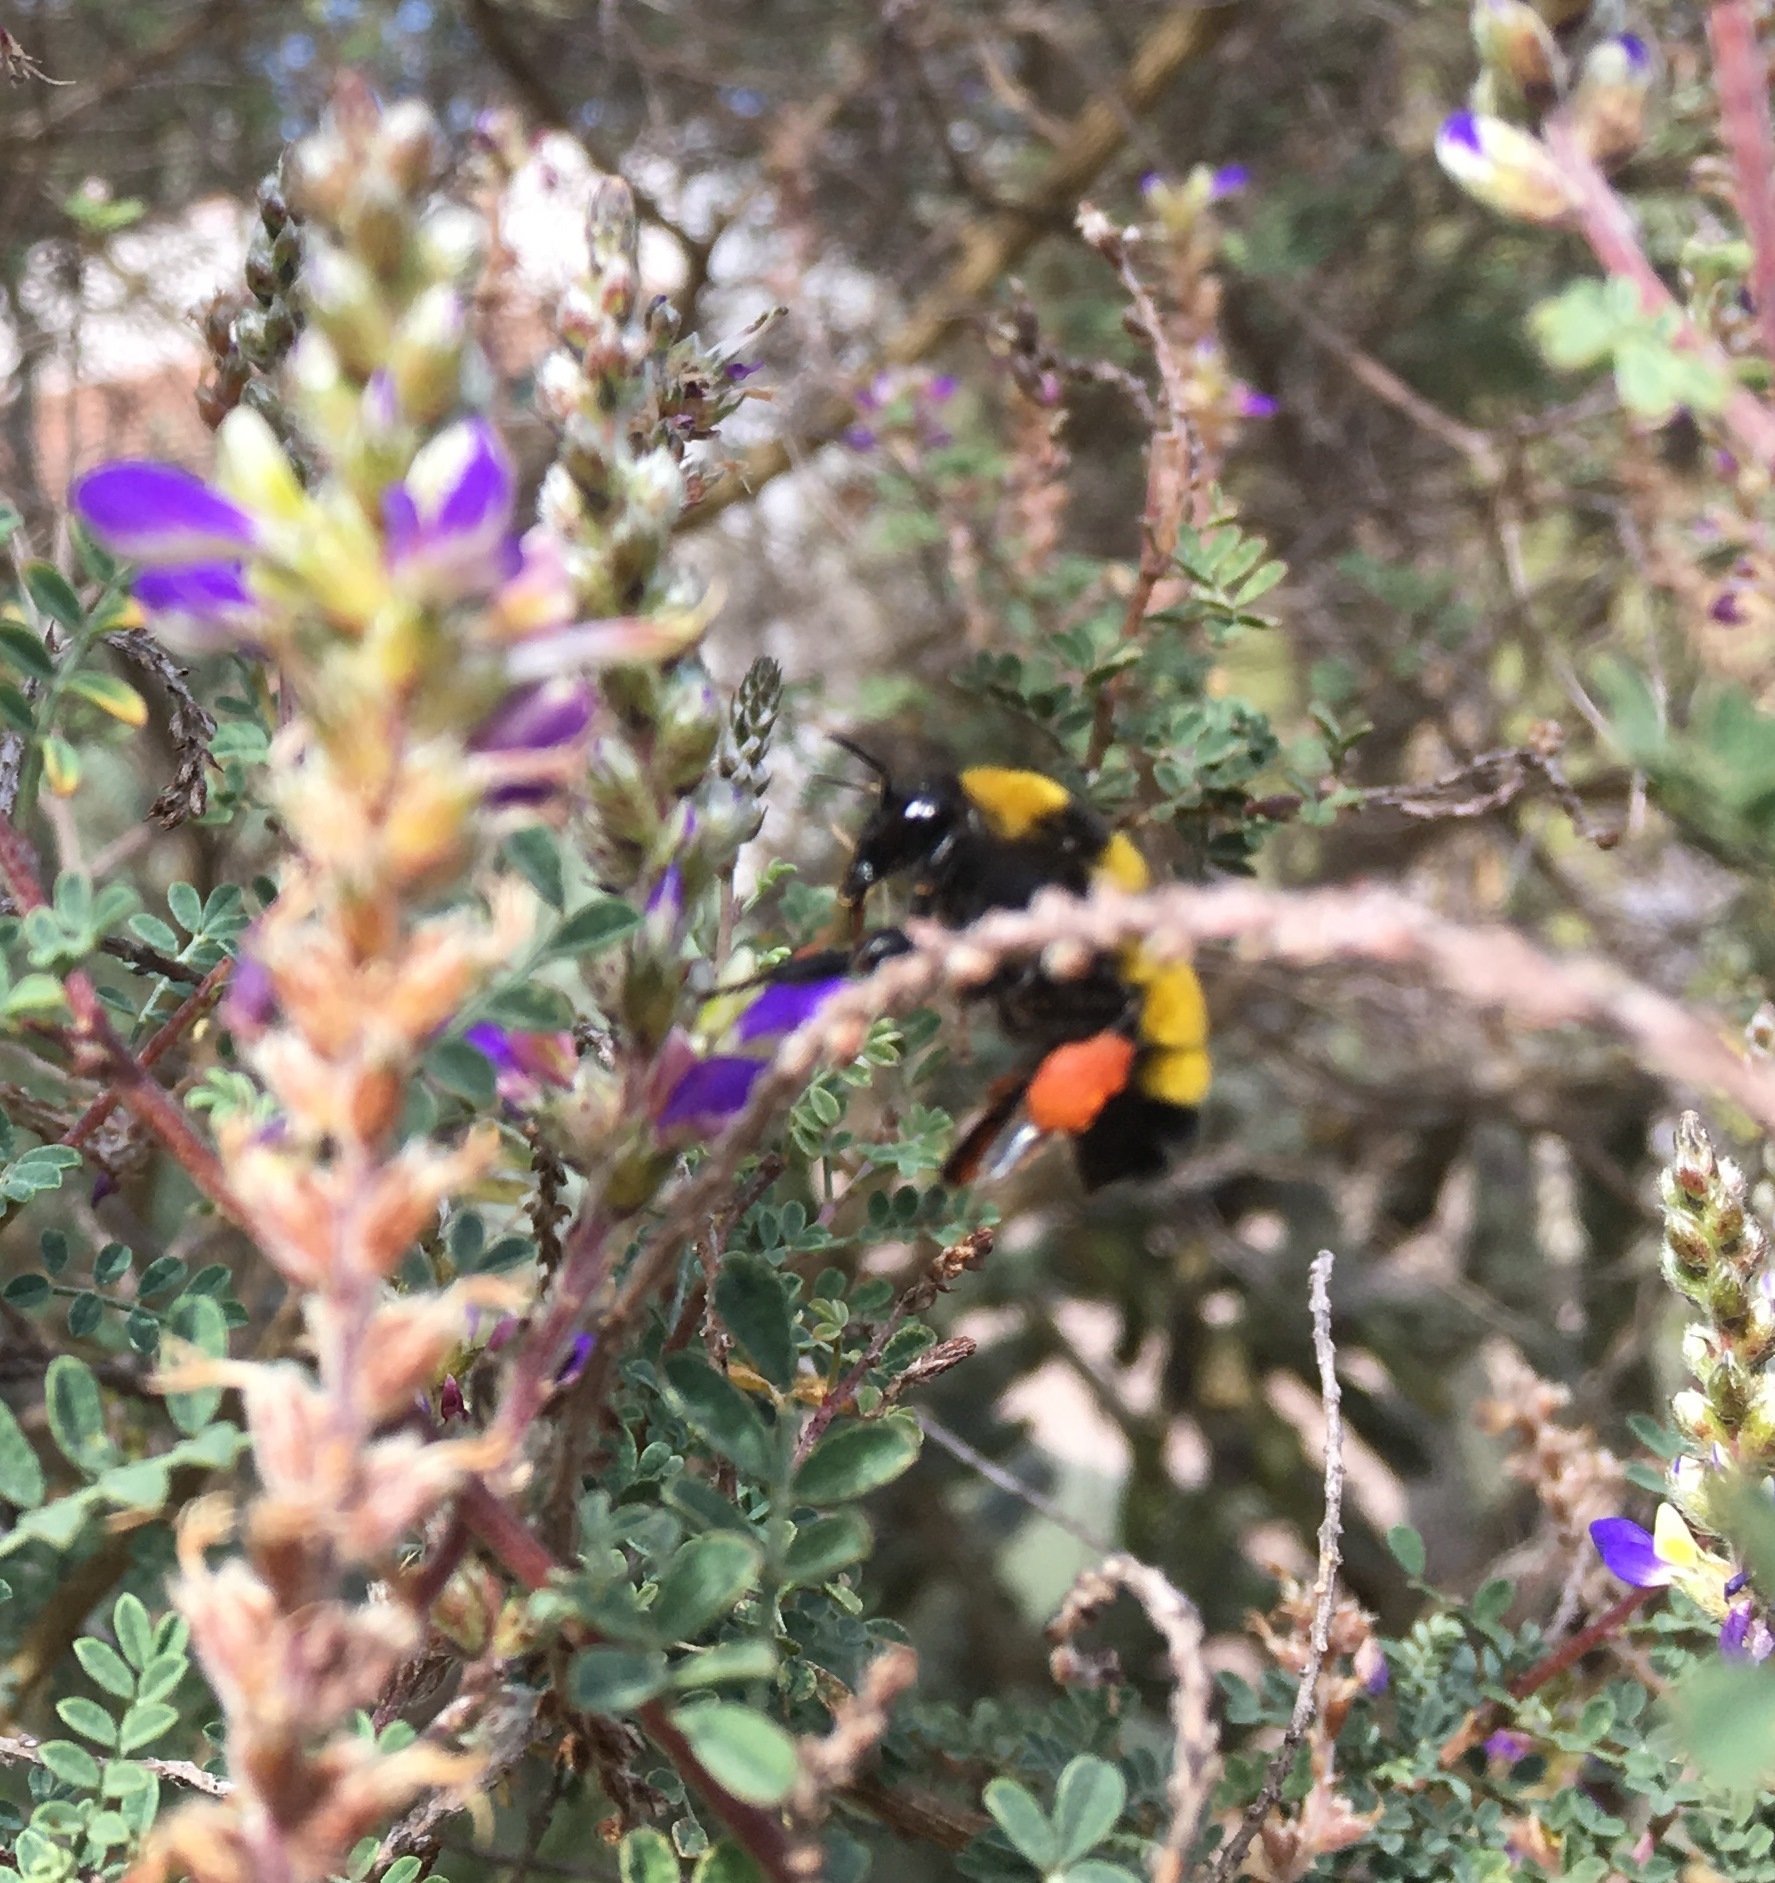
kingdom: Animalia
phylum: Arthropoda
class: Insecta
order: Hymenoptera
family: Apidae
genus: Bombus
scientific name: Bombus sonorus
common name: Sonoran bumble bee
